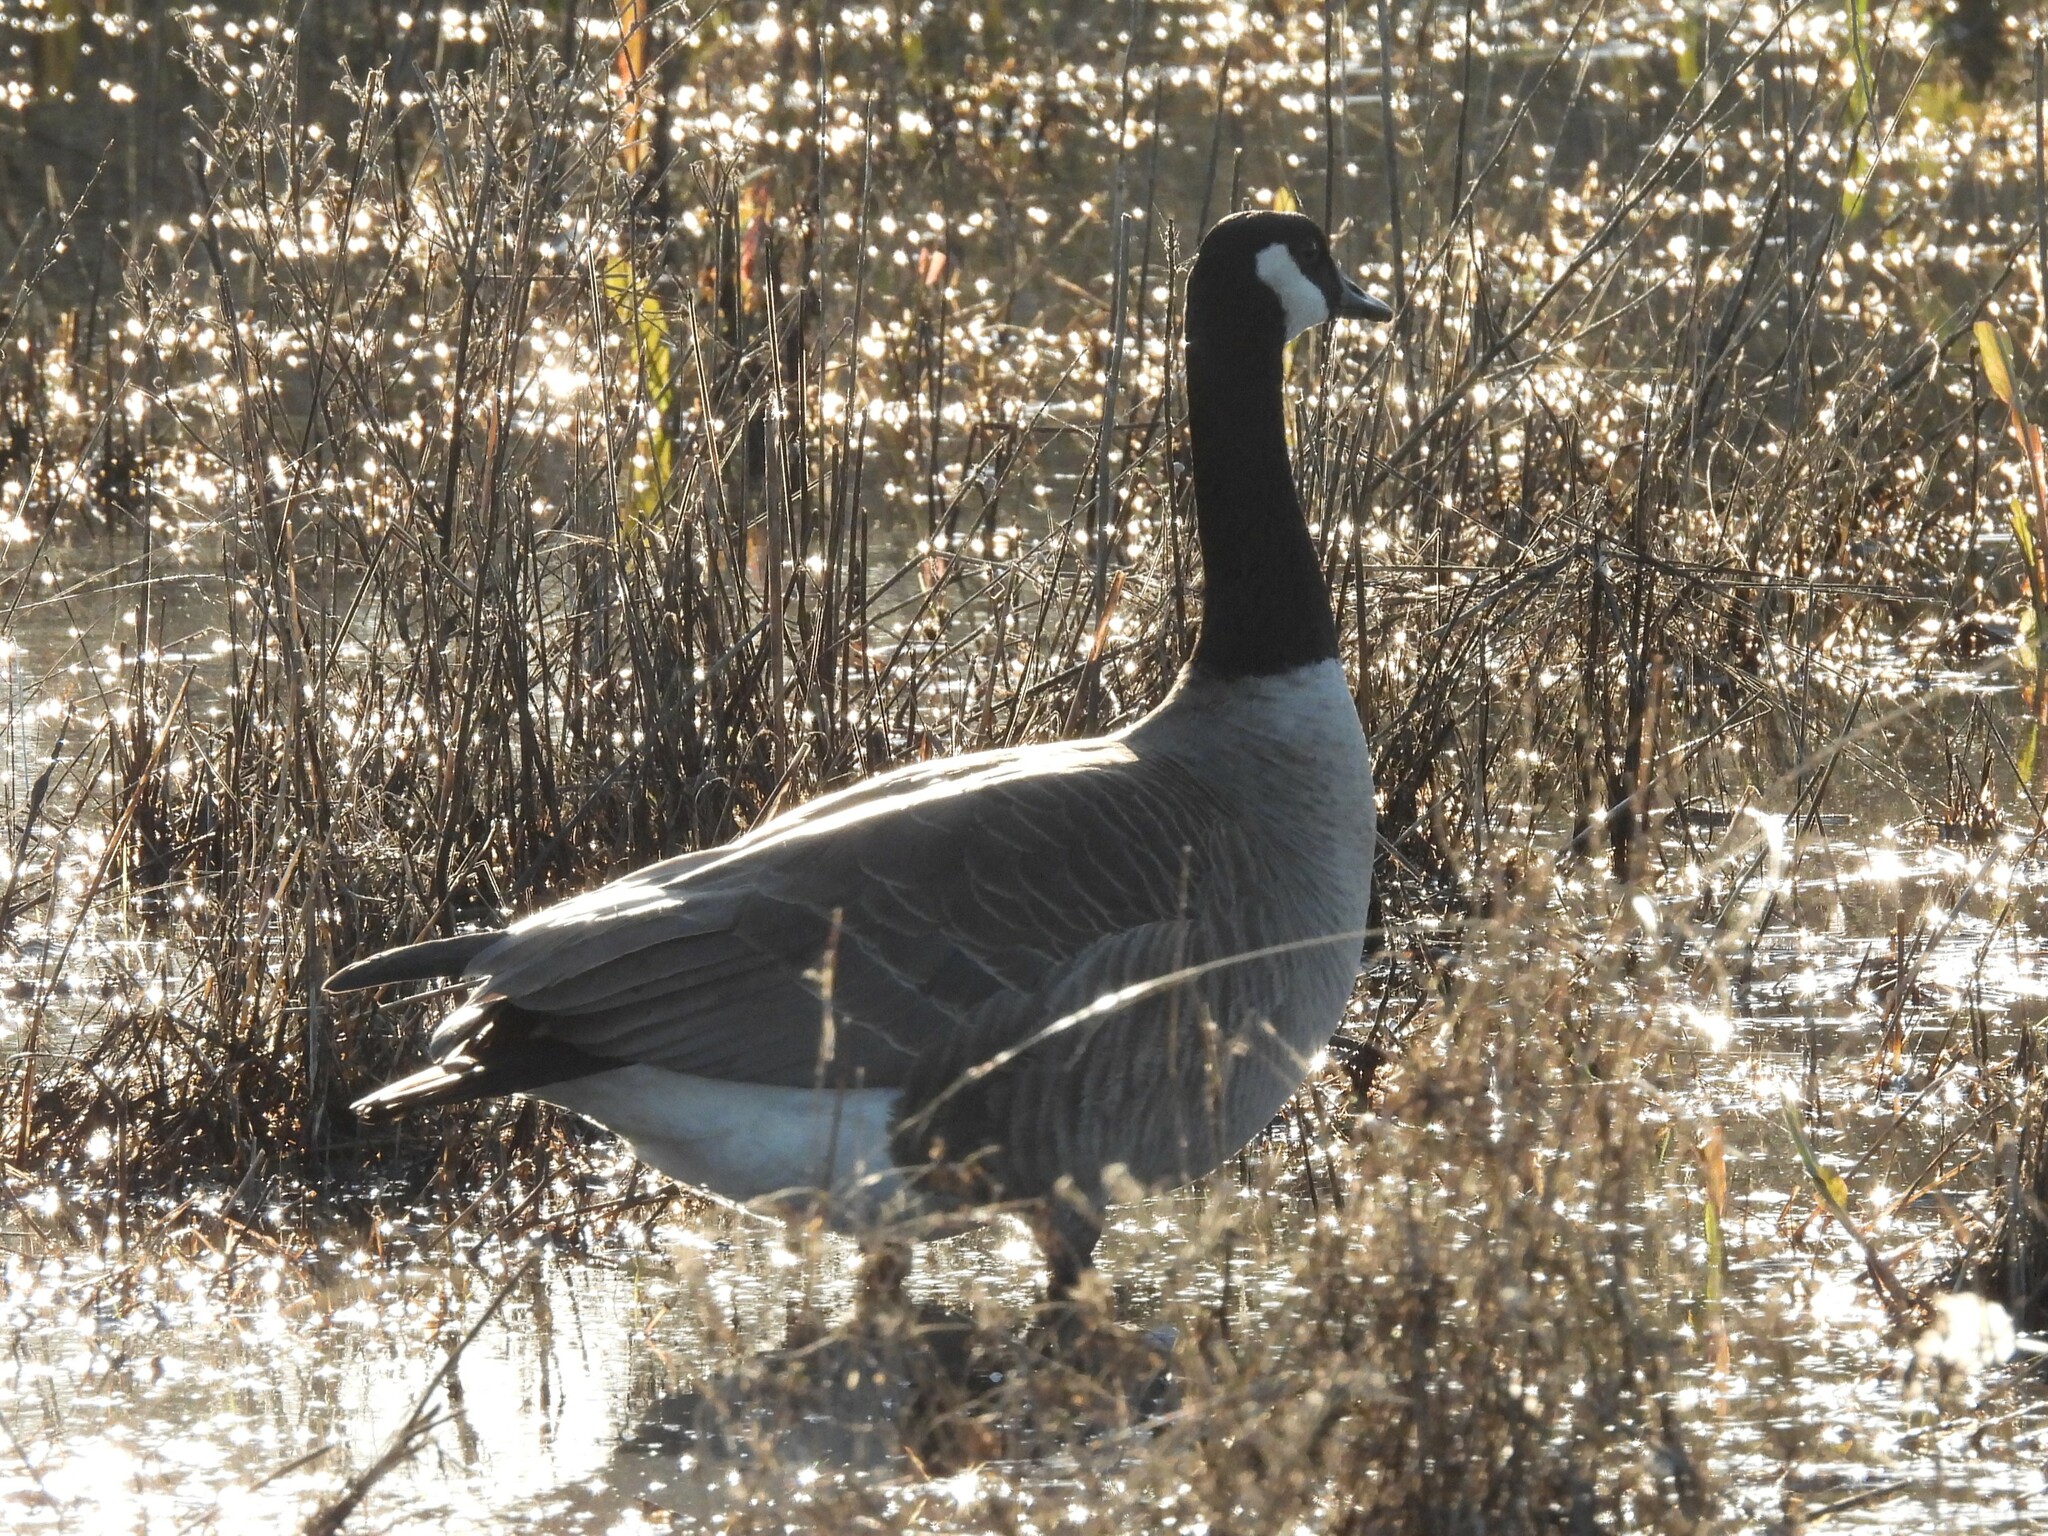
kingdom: Animalia
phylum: Chordata
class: Aves
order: Anseriformes
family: Anatidae
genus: Branta
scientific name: Branta canadensis
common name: Canada goose
